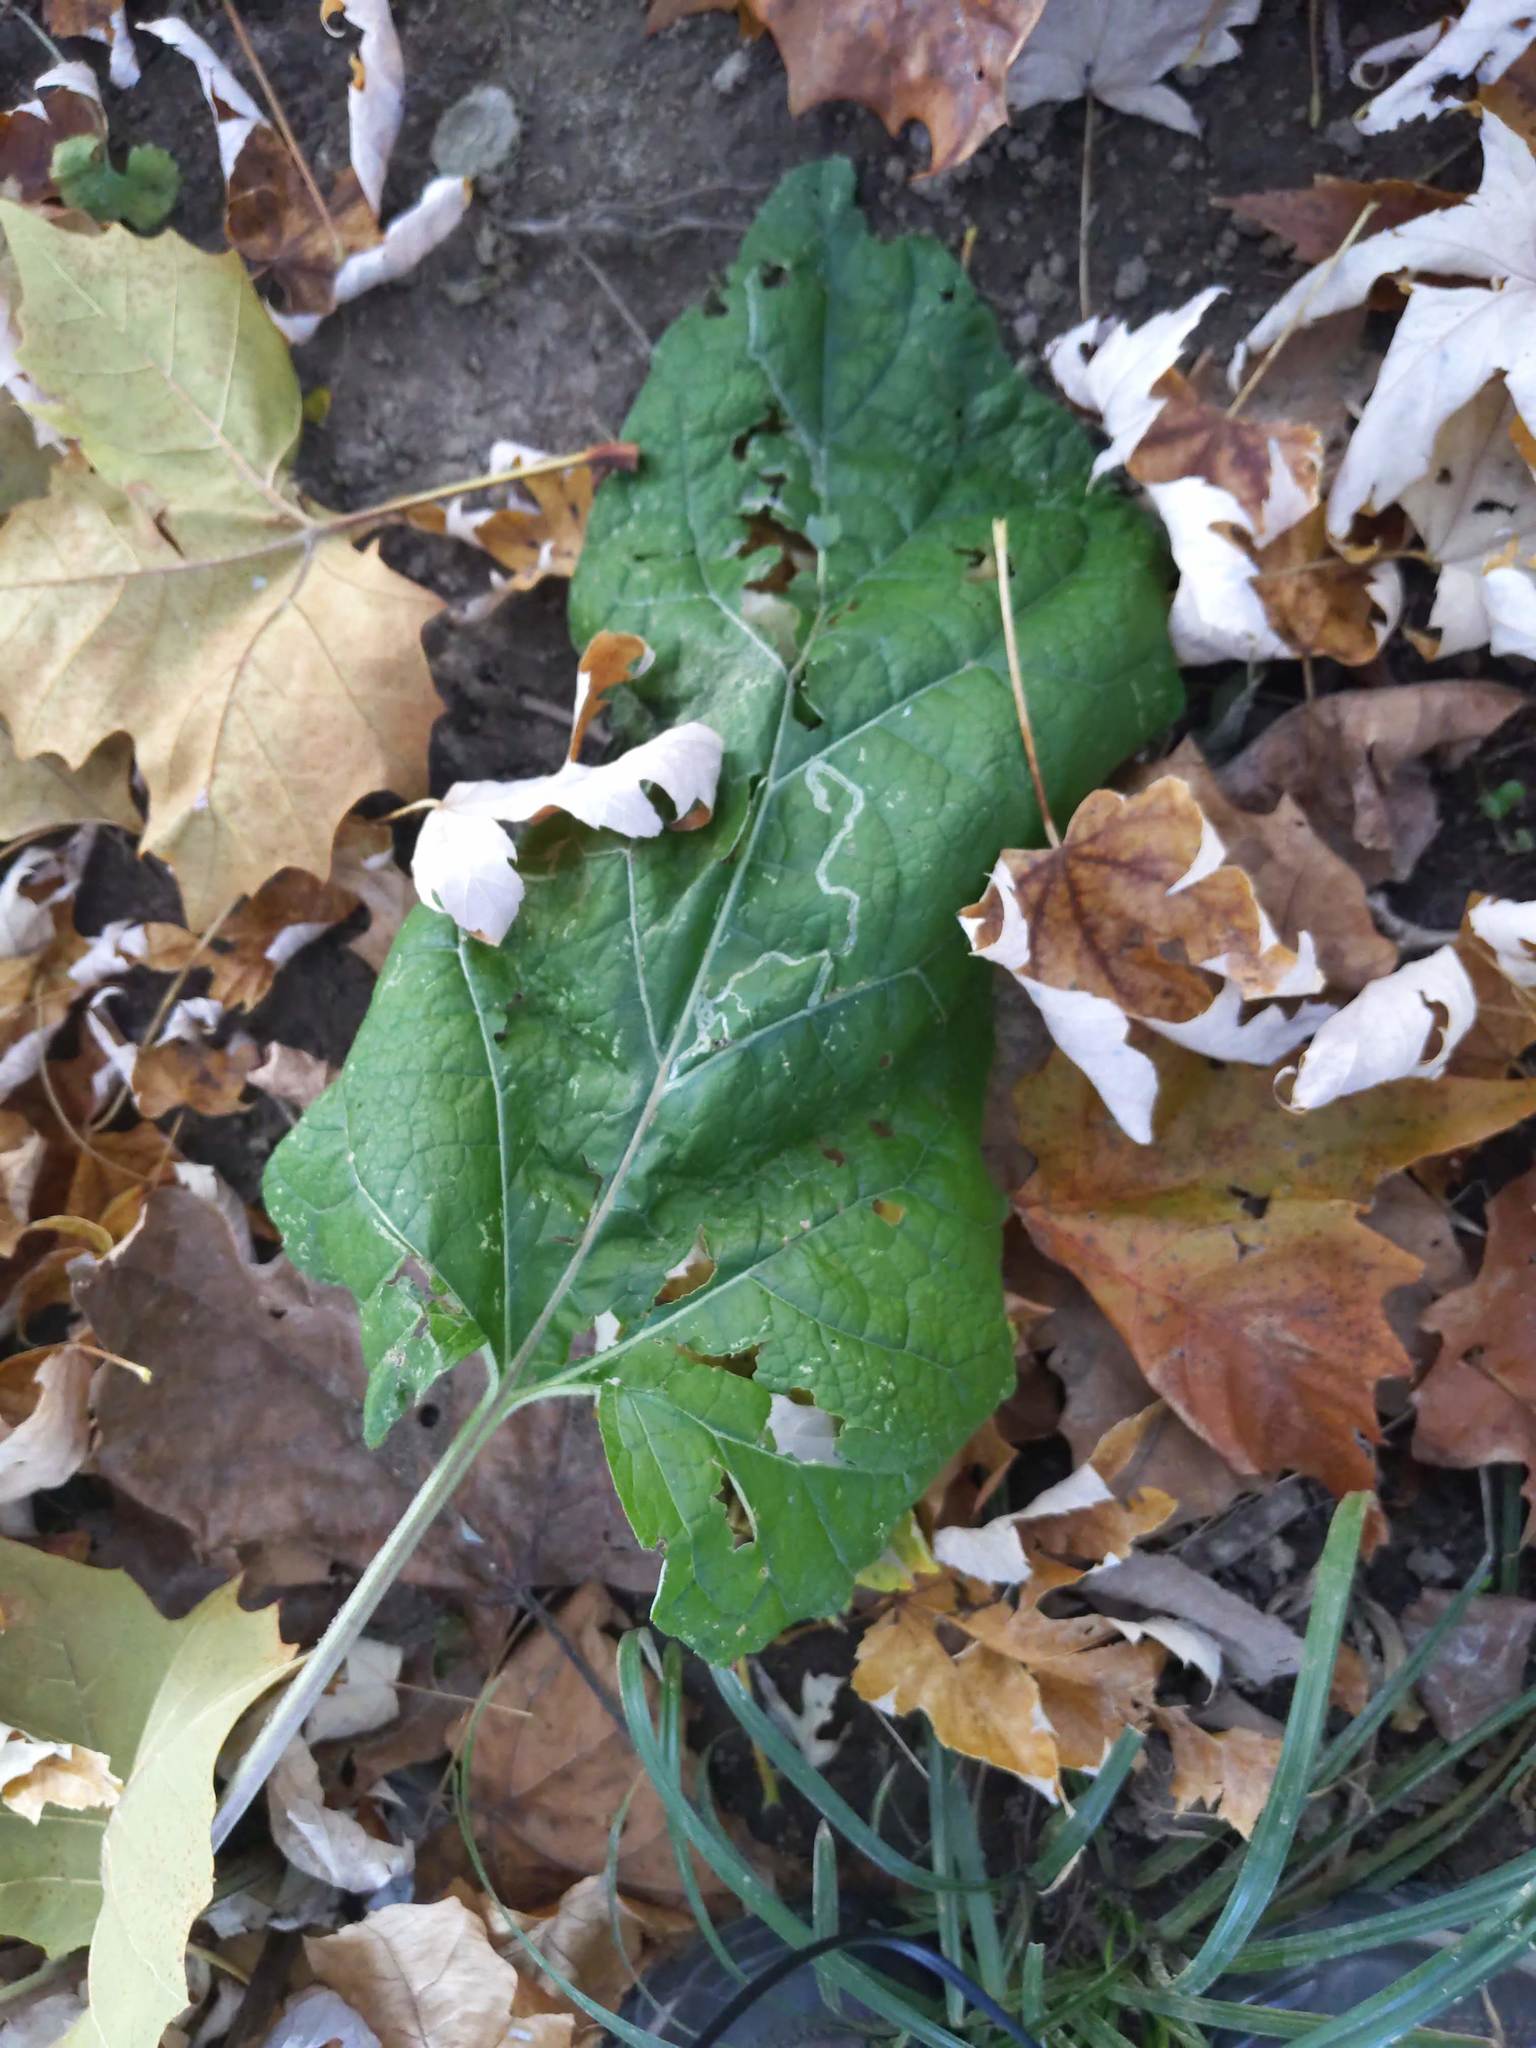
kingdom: Plantae
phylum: Tracheophyta
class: Magnoliopsida
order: Asterales
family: Asteraceae
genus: Arctium
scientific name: Arctium
